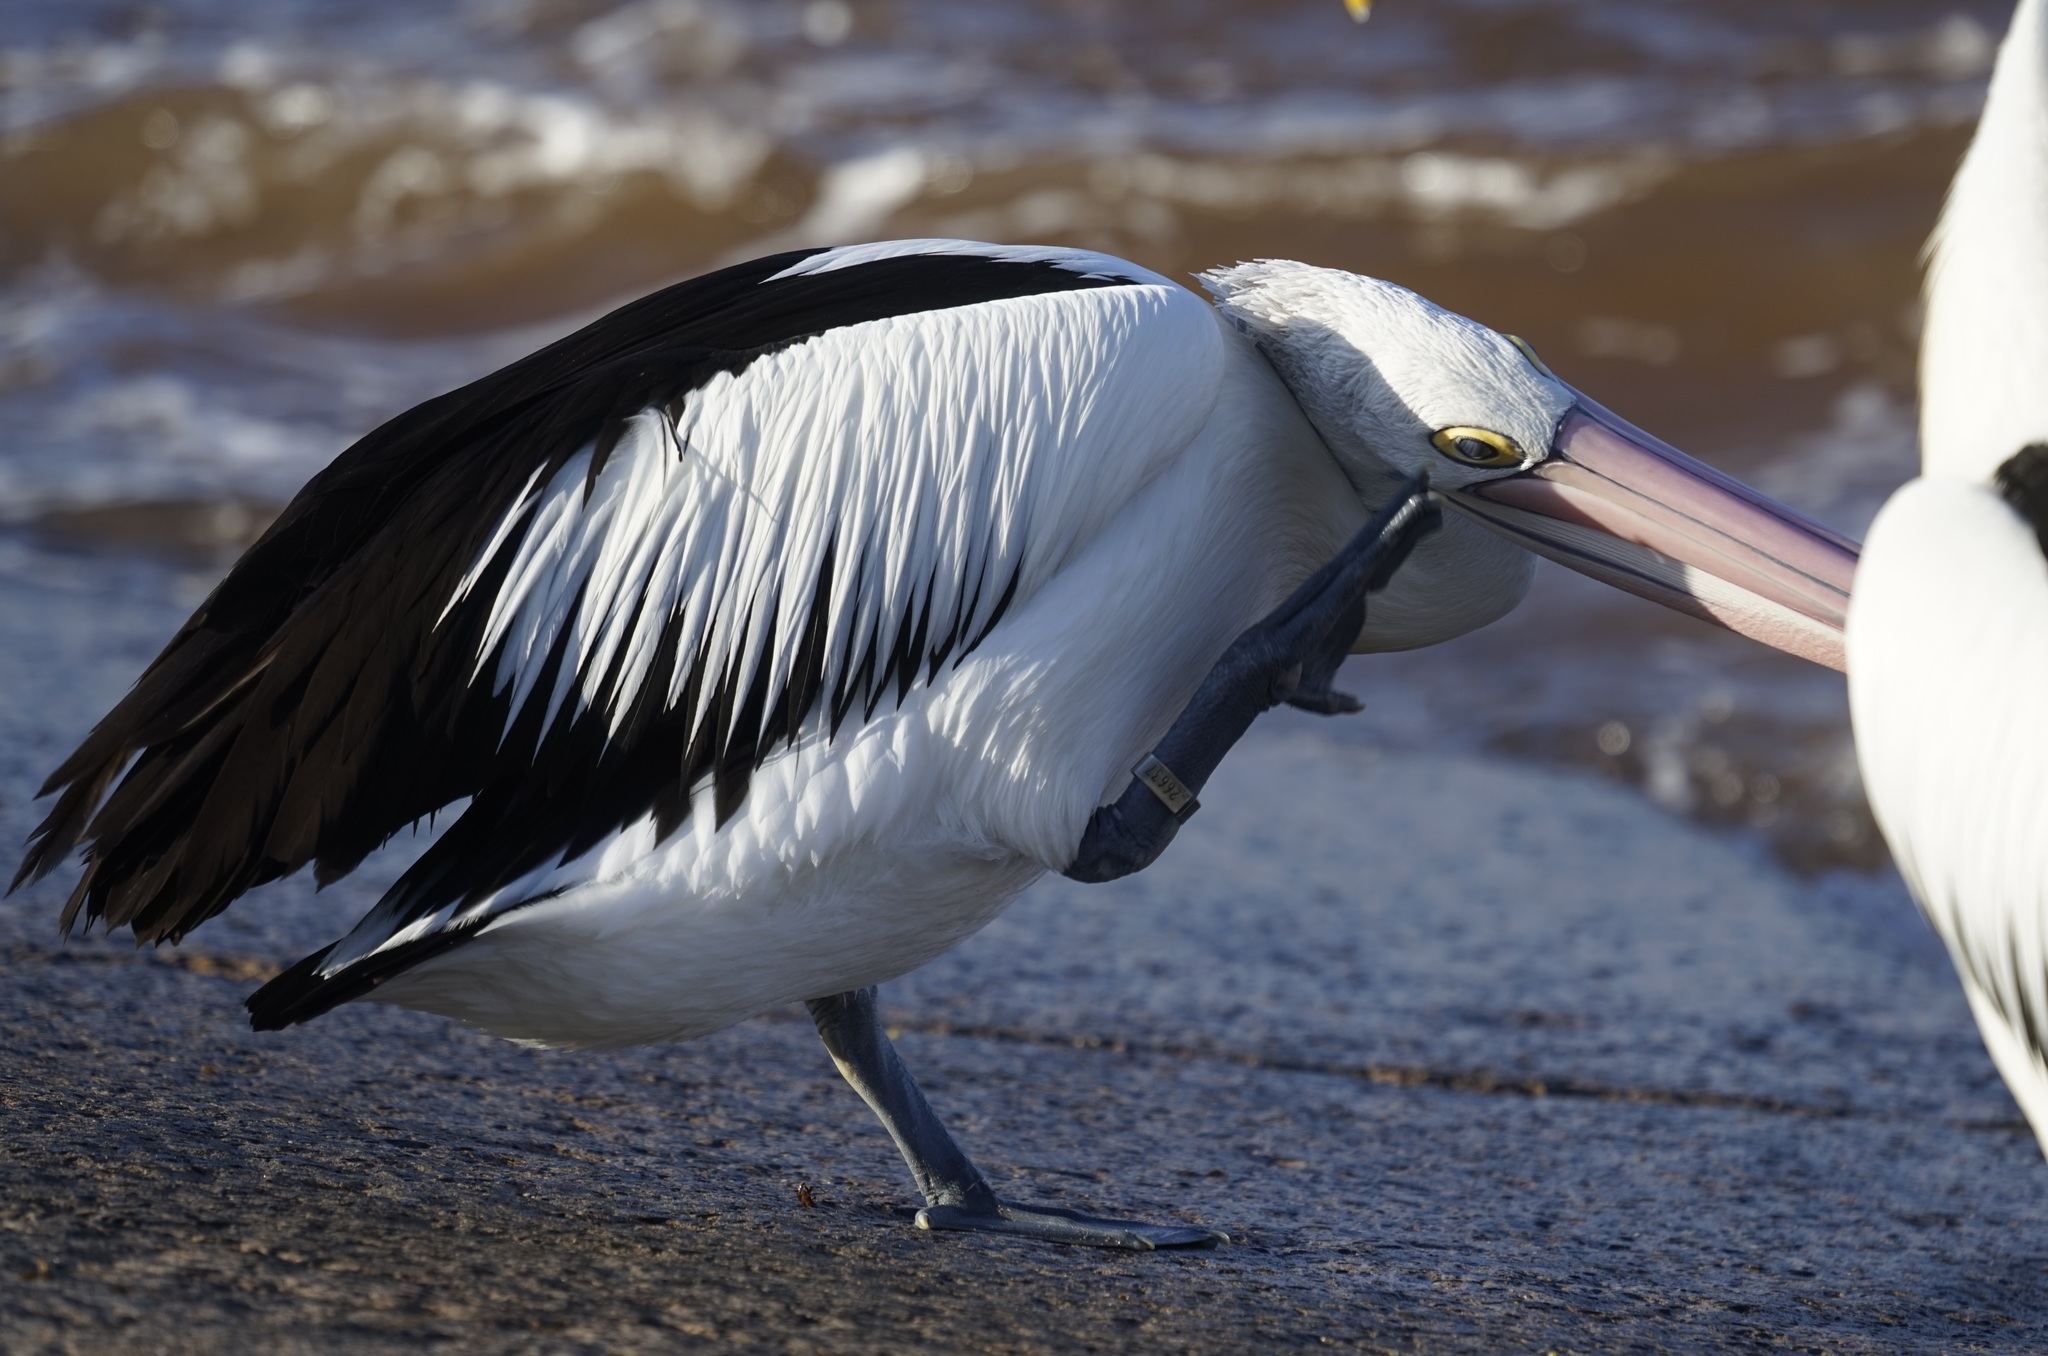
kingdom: Animalia
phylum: Chordata
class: Aves
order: Pelecaniformes
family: Pelecanidae
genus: Pelecanus
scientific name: Pelecanus conspicillatus
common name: Australian pelican
